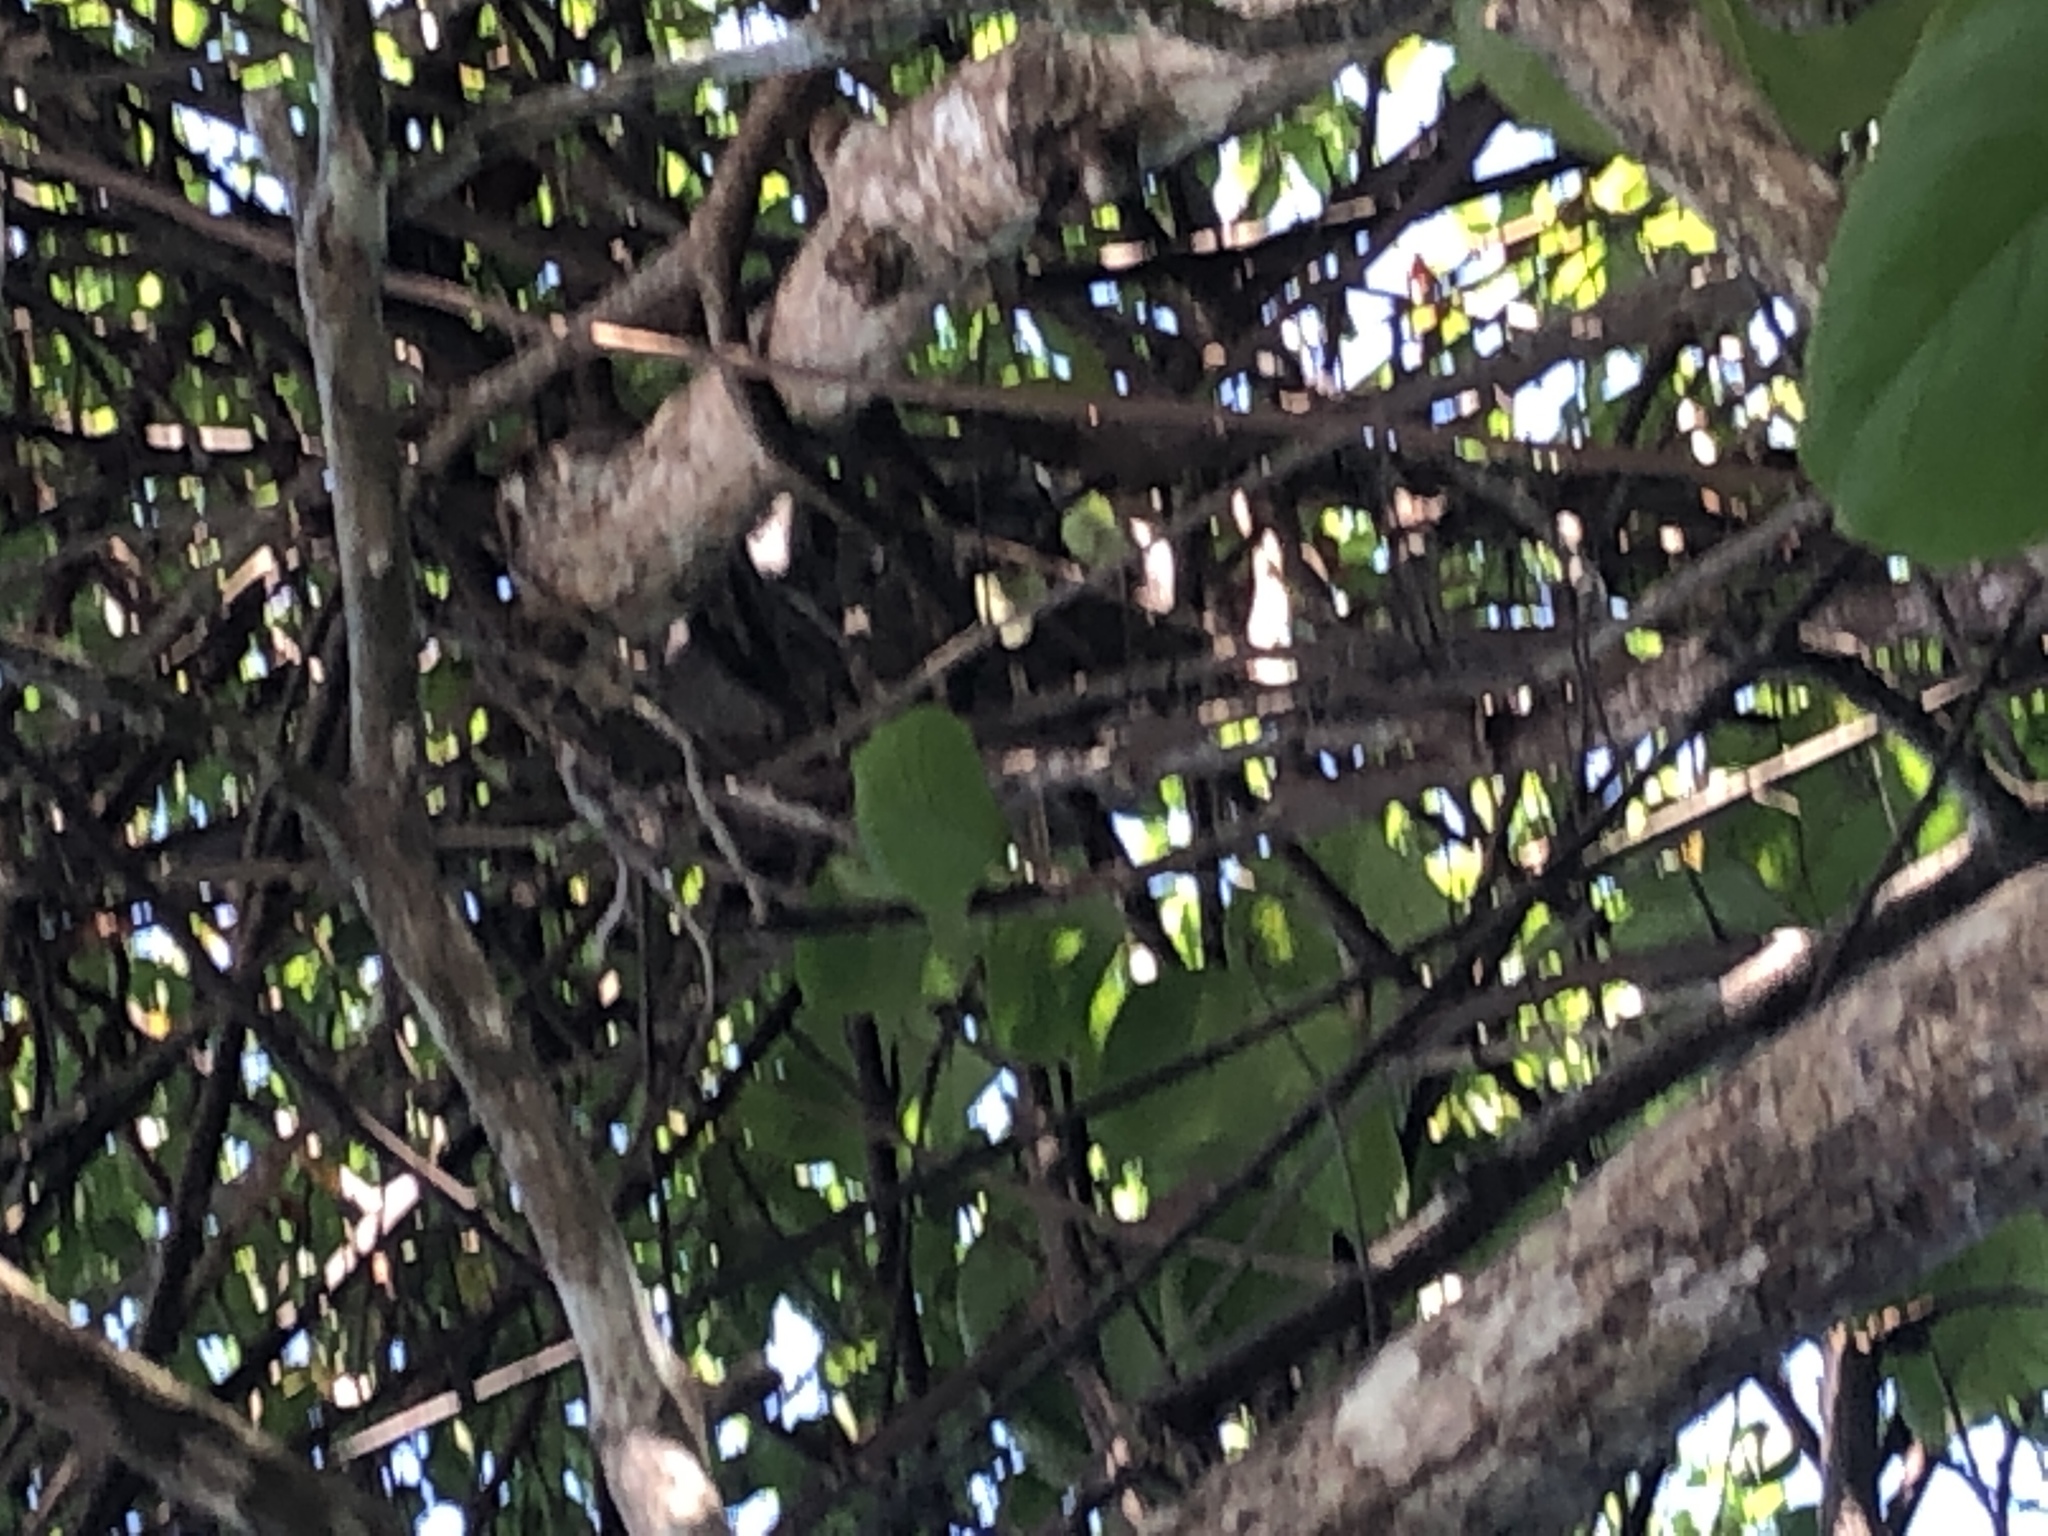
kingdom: Animalia
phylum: Chordata
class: Mammalia
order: Pilosa
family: Bradypodidae
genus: Bradypus
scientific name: Bradypus variegatus
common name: Brown-throated three-toed sloth
